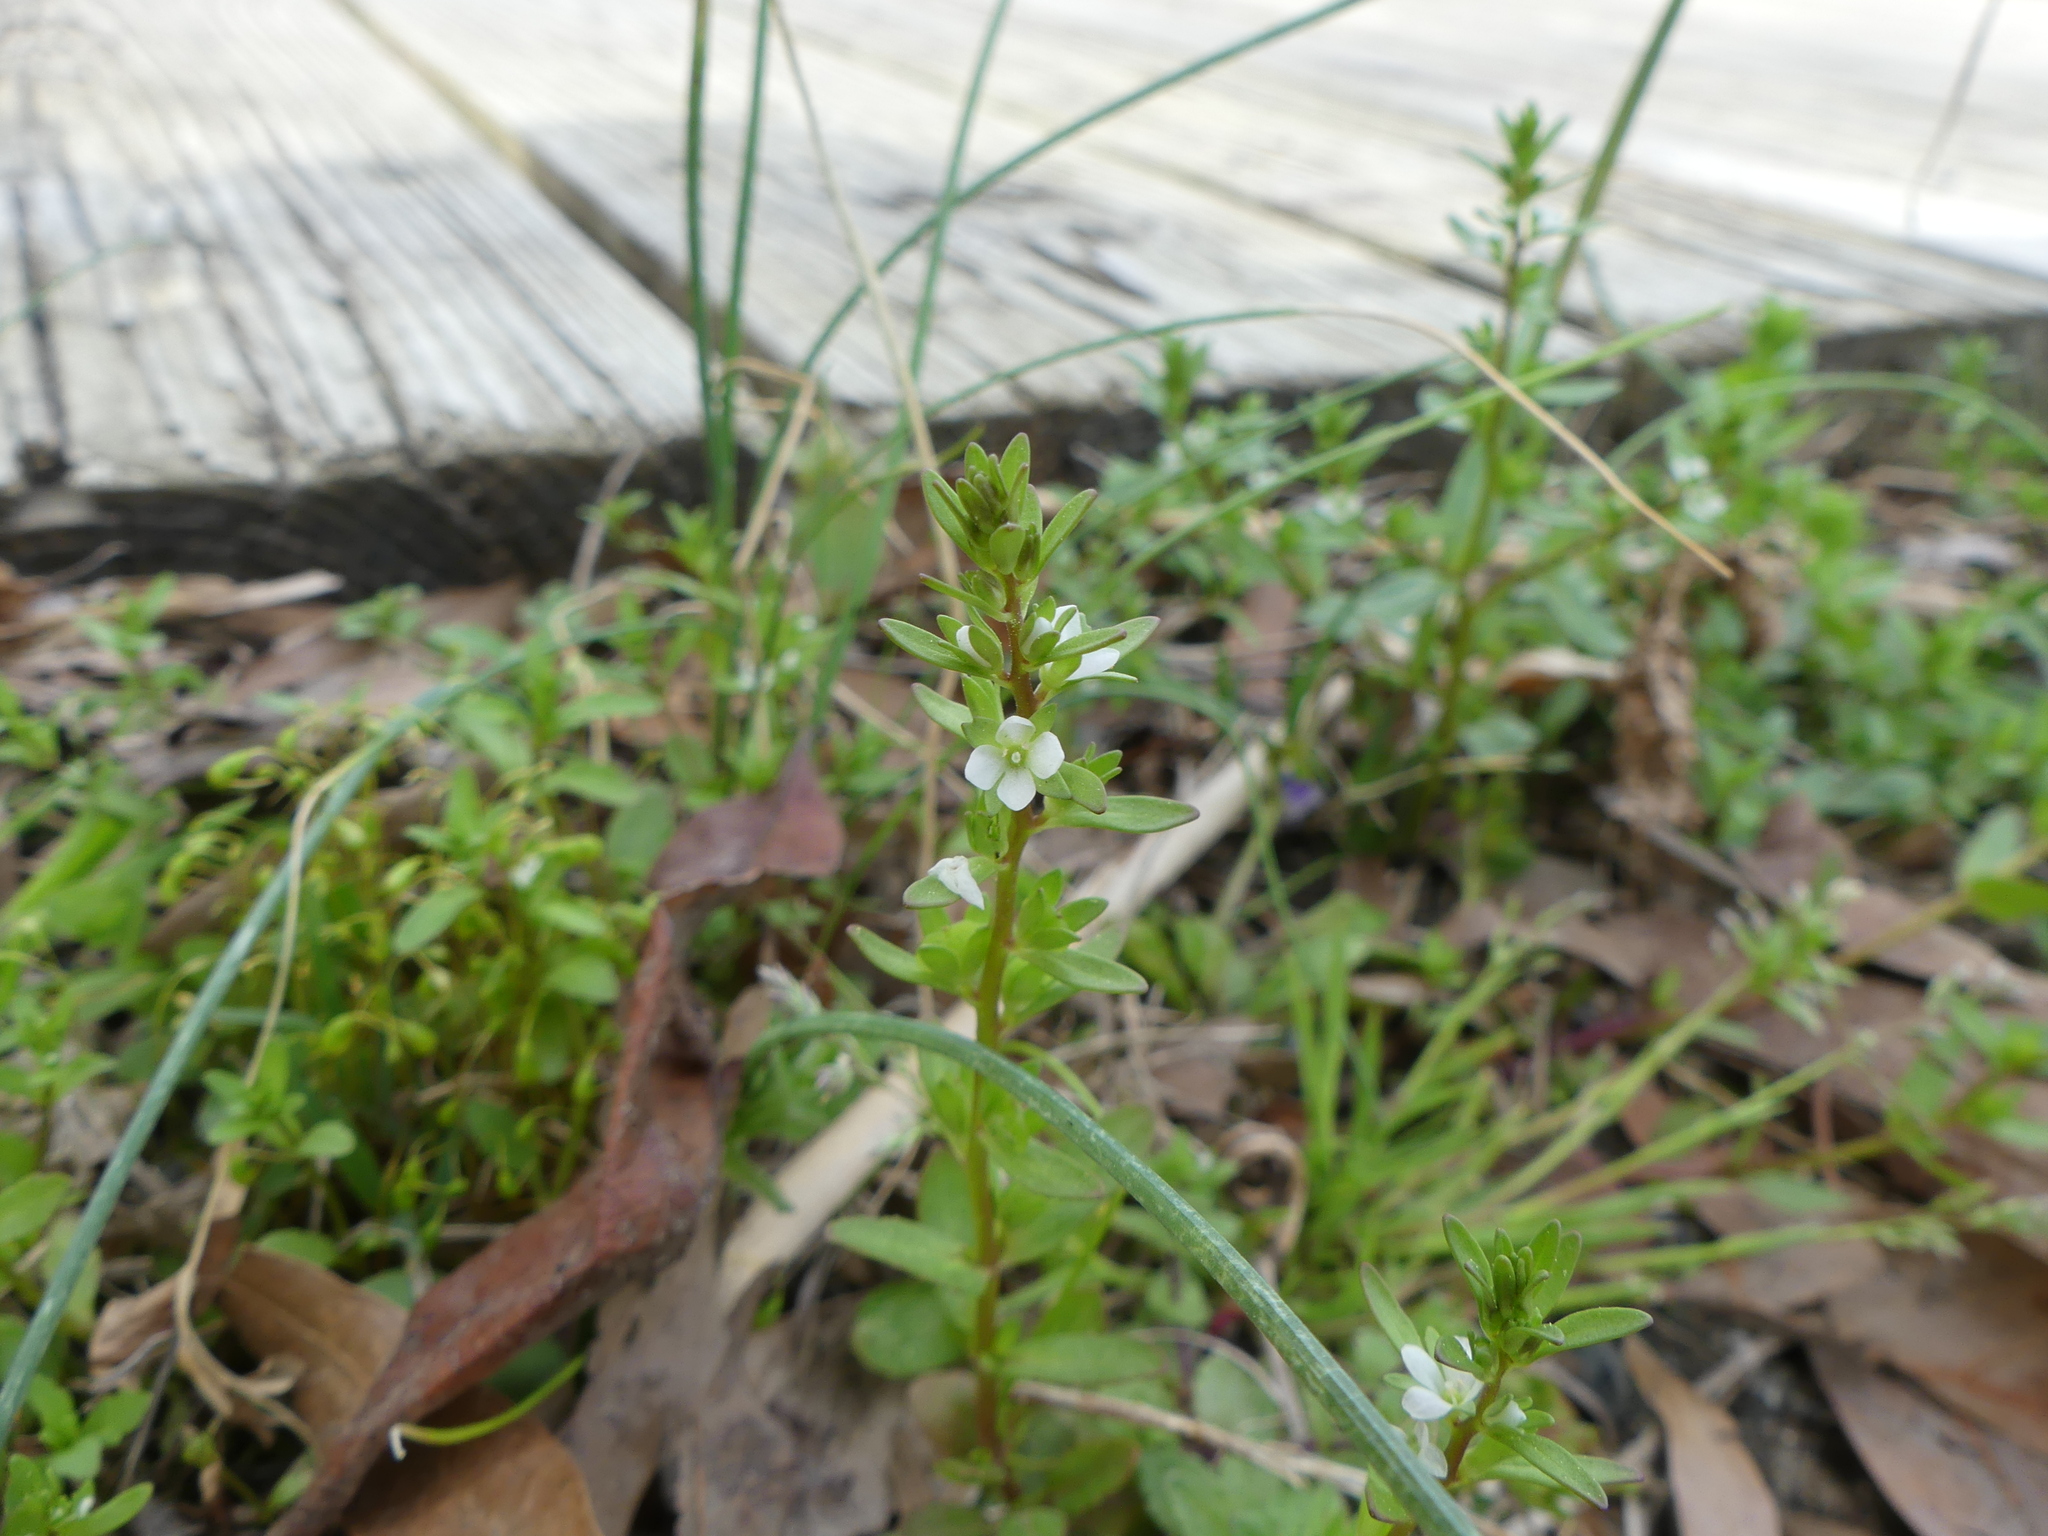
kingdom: Plantae
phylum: Tracheophyta
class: Magnoliopsida
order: Lamiales
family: Plantaginaceae
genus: Veronica
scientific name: Veronica peregrina
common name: Neckweed
